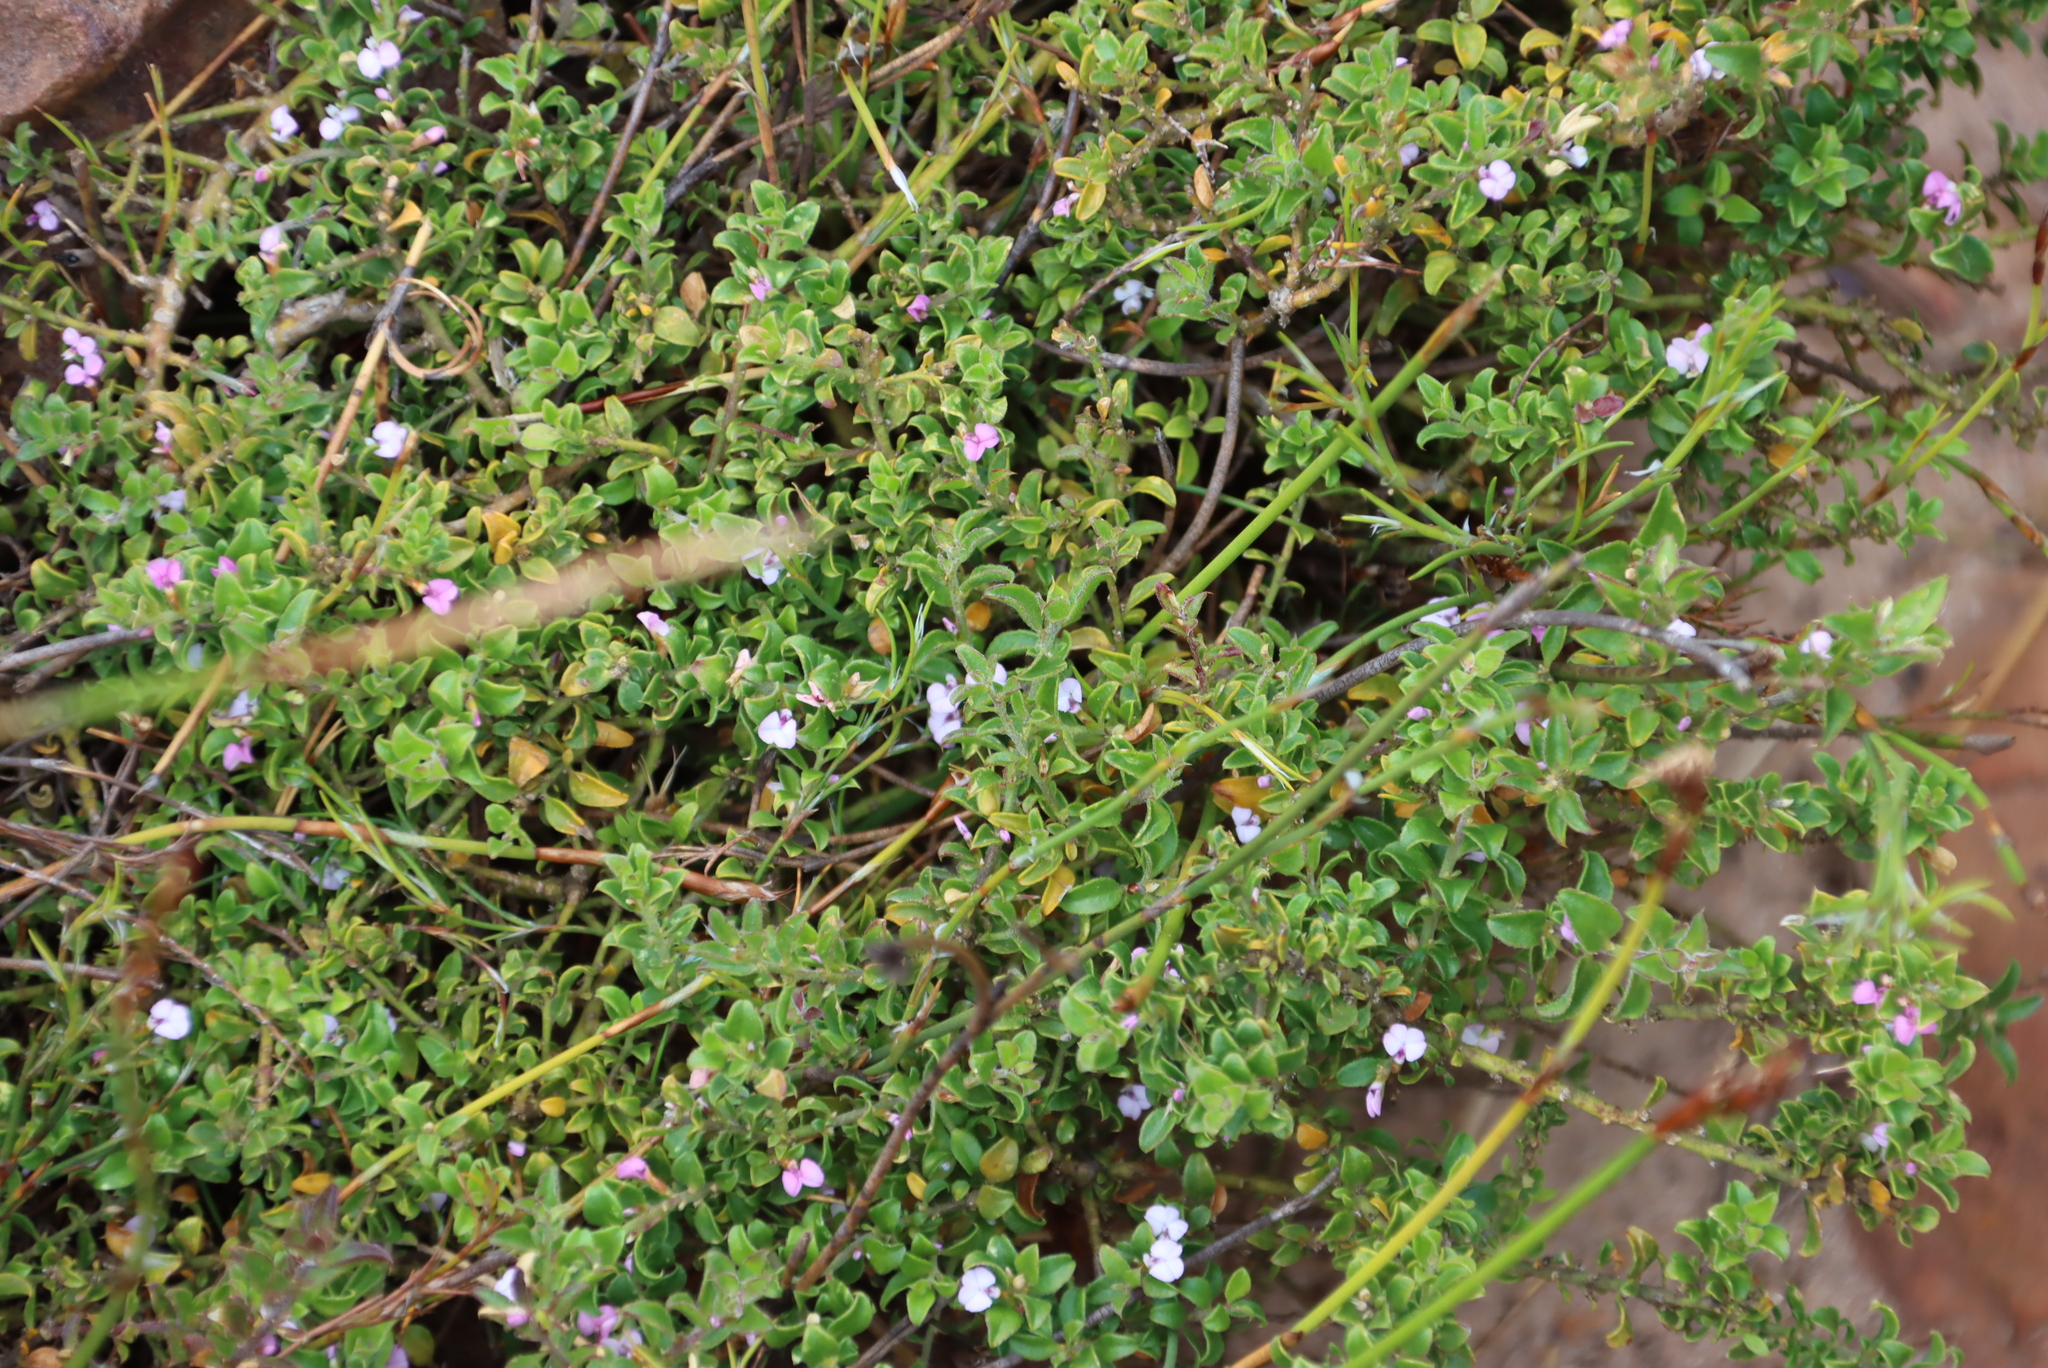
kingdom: Plantae
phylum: Tracheophyta
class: Magnoliopsida
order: Fabales
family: Polygalaceae
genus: Muraltia
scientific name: Muraltia orbicularis
